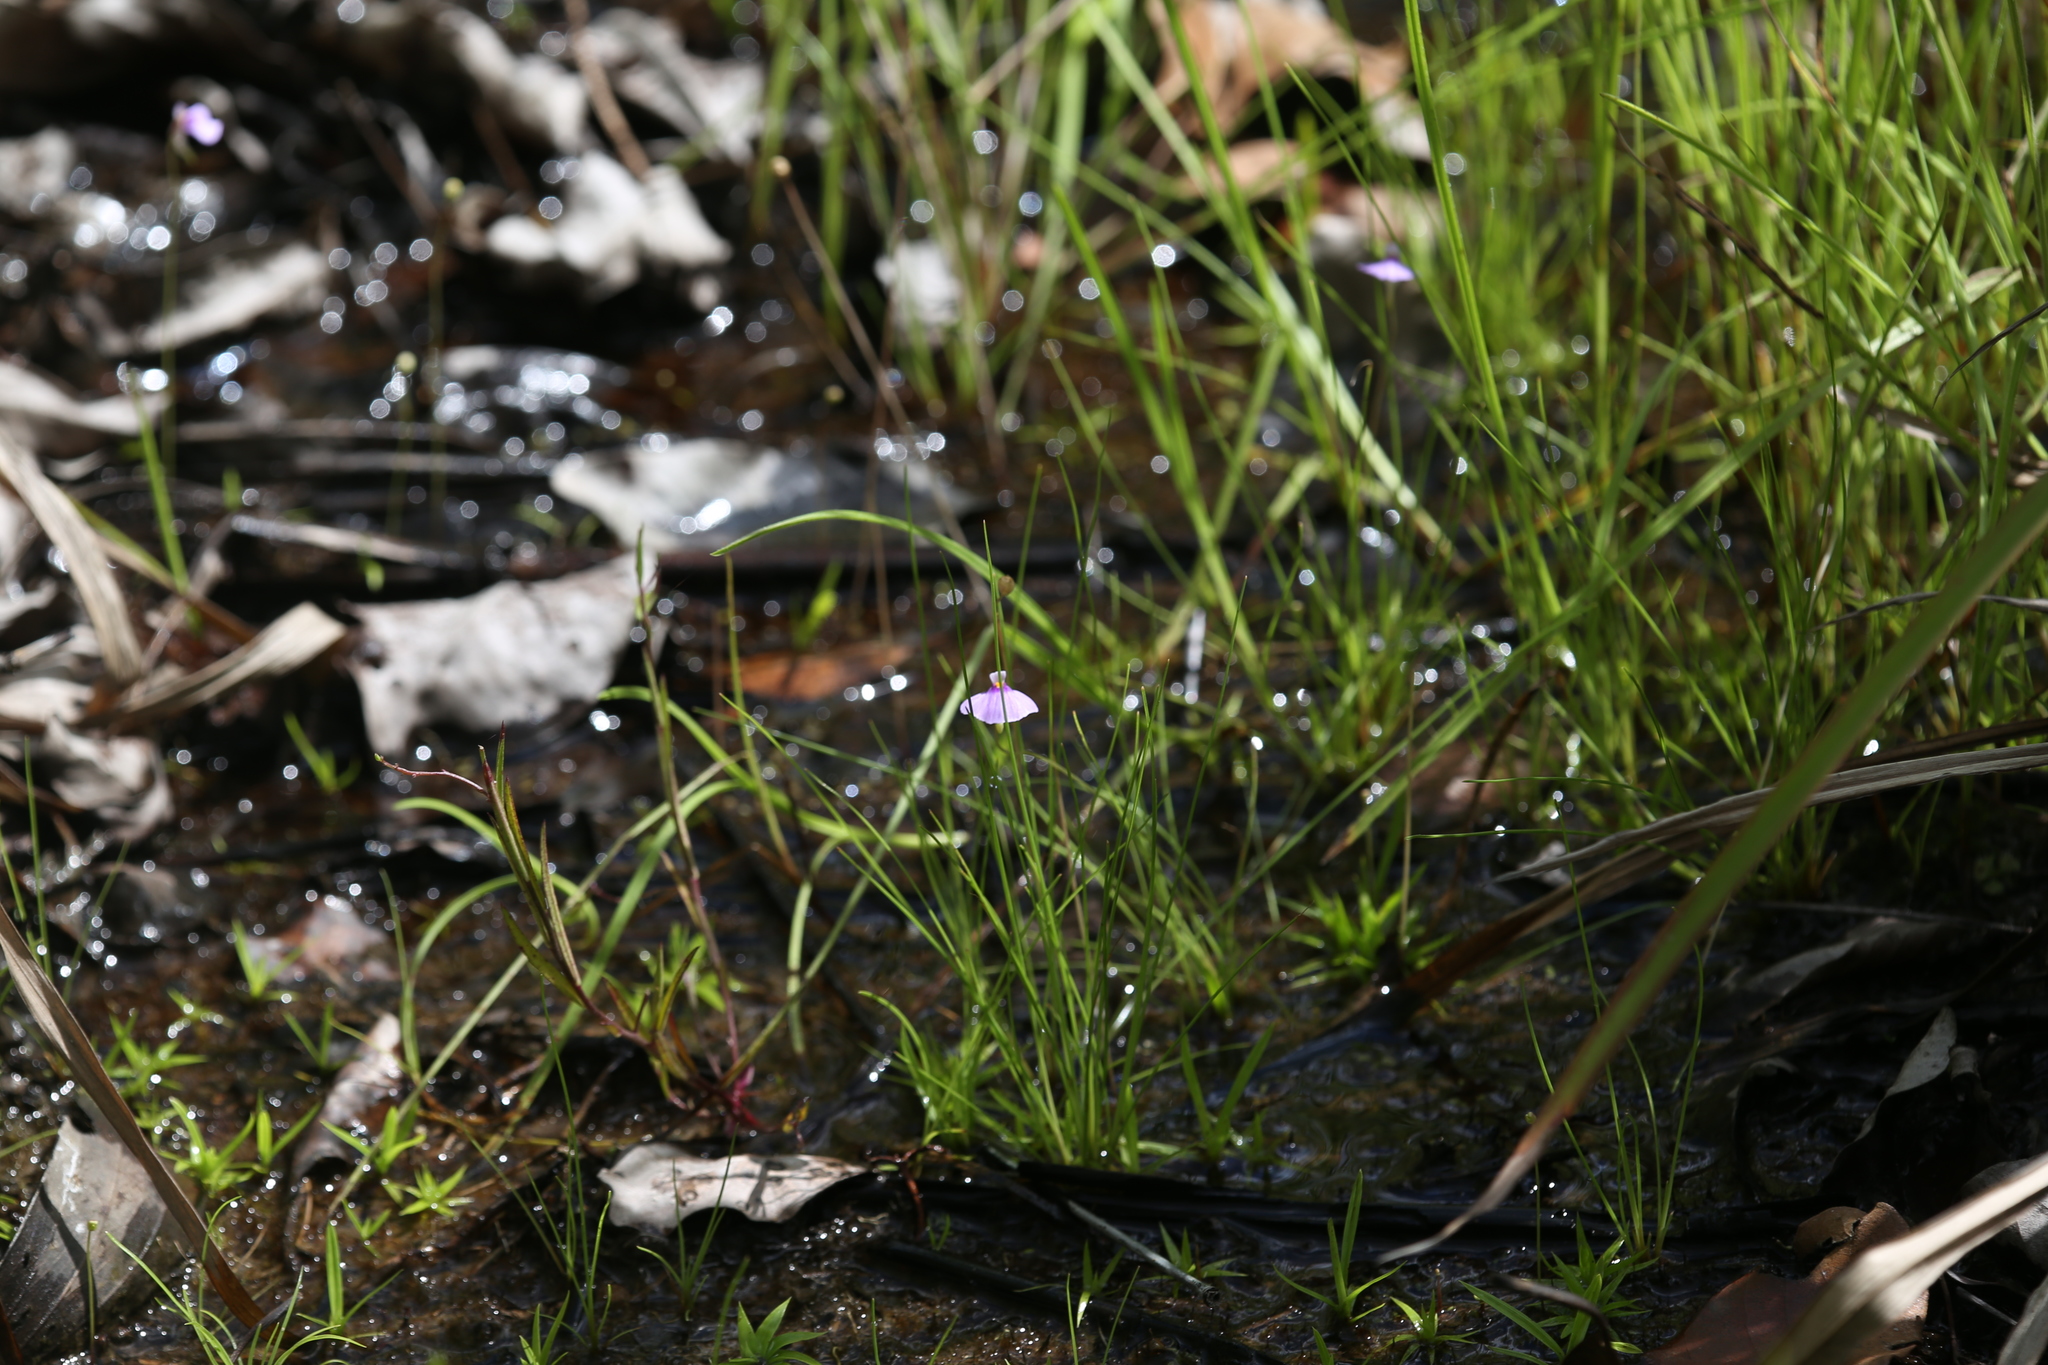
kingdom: Plantae
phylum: Tracheophyta
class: Magnoliopsida
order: Lamiales
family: Lentibulariaceae
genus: Utricularia
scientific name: Utricularia gaagudju
